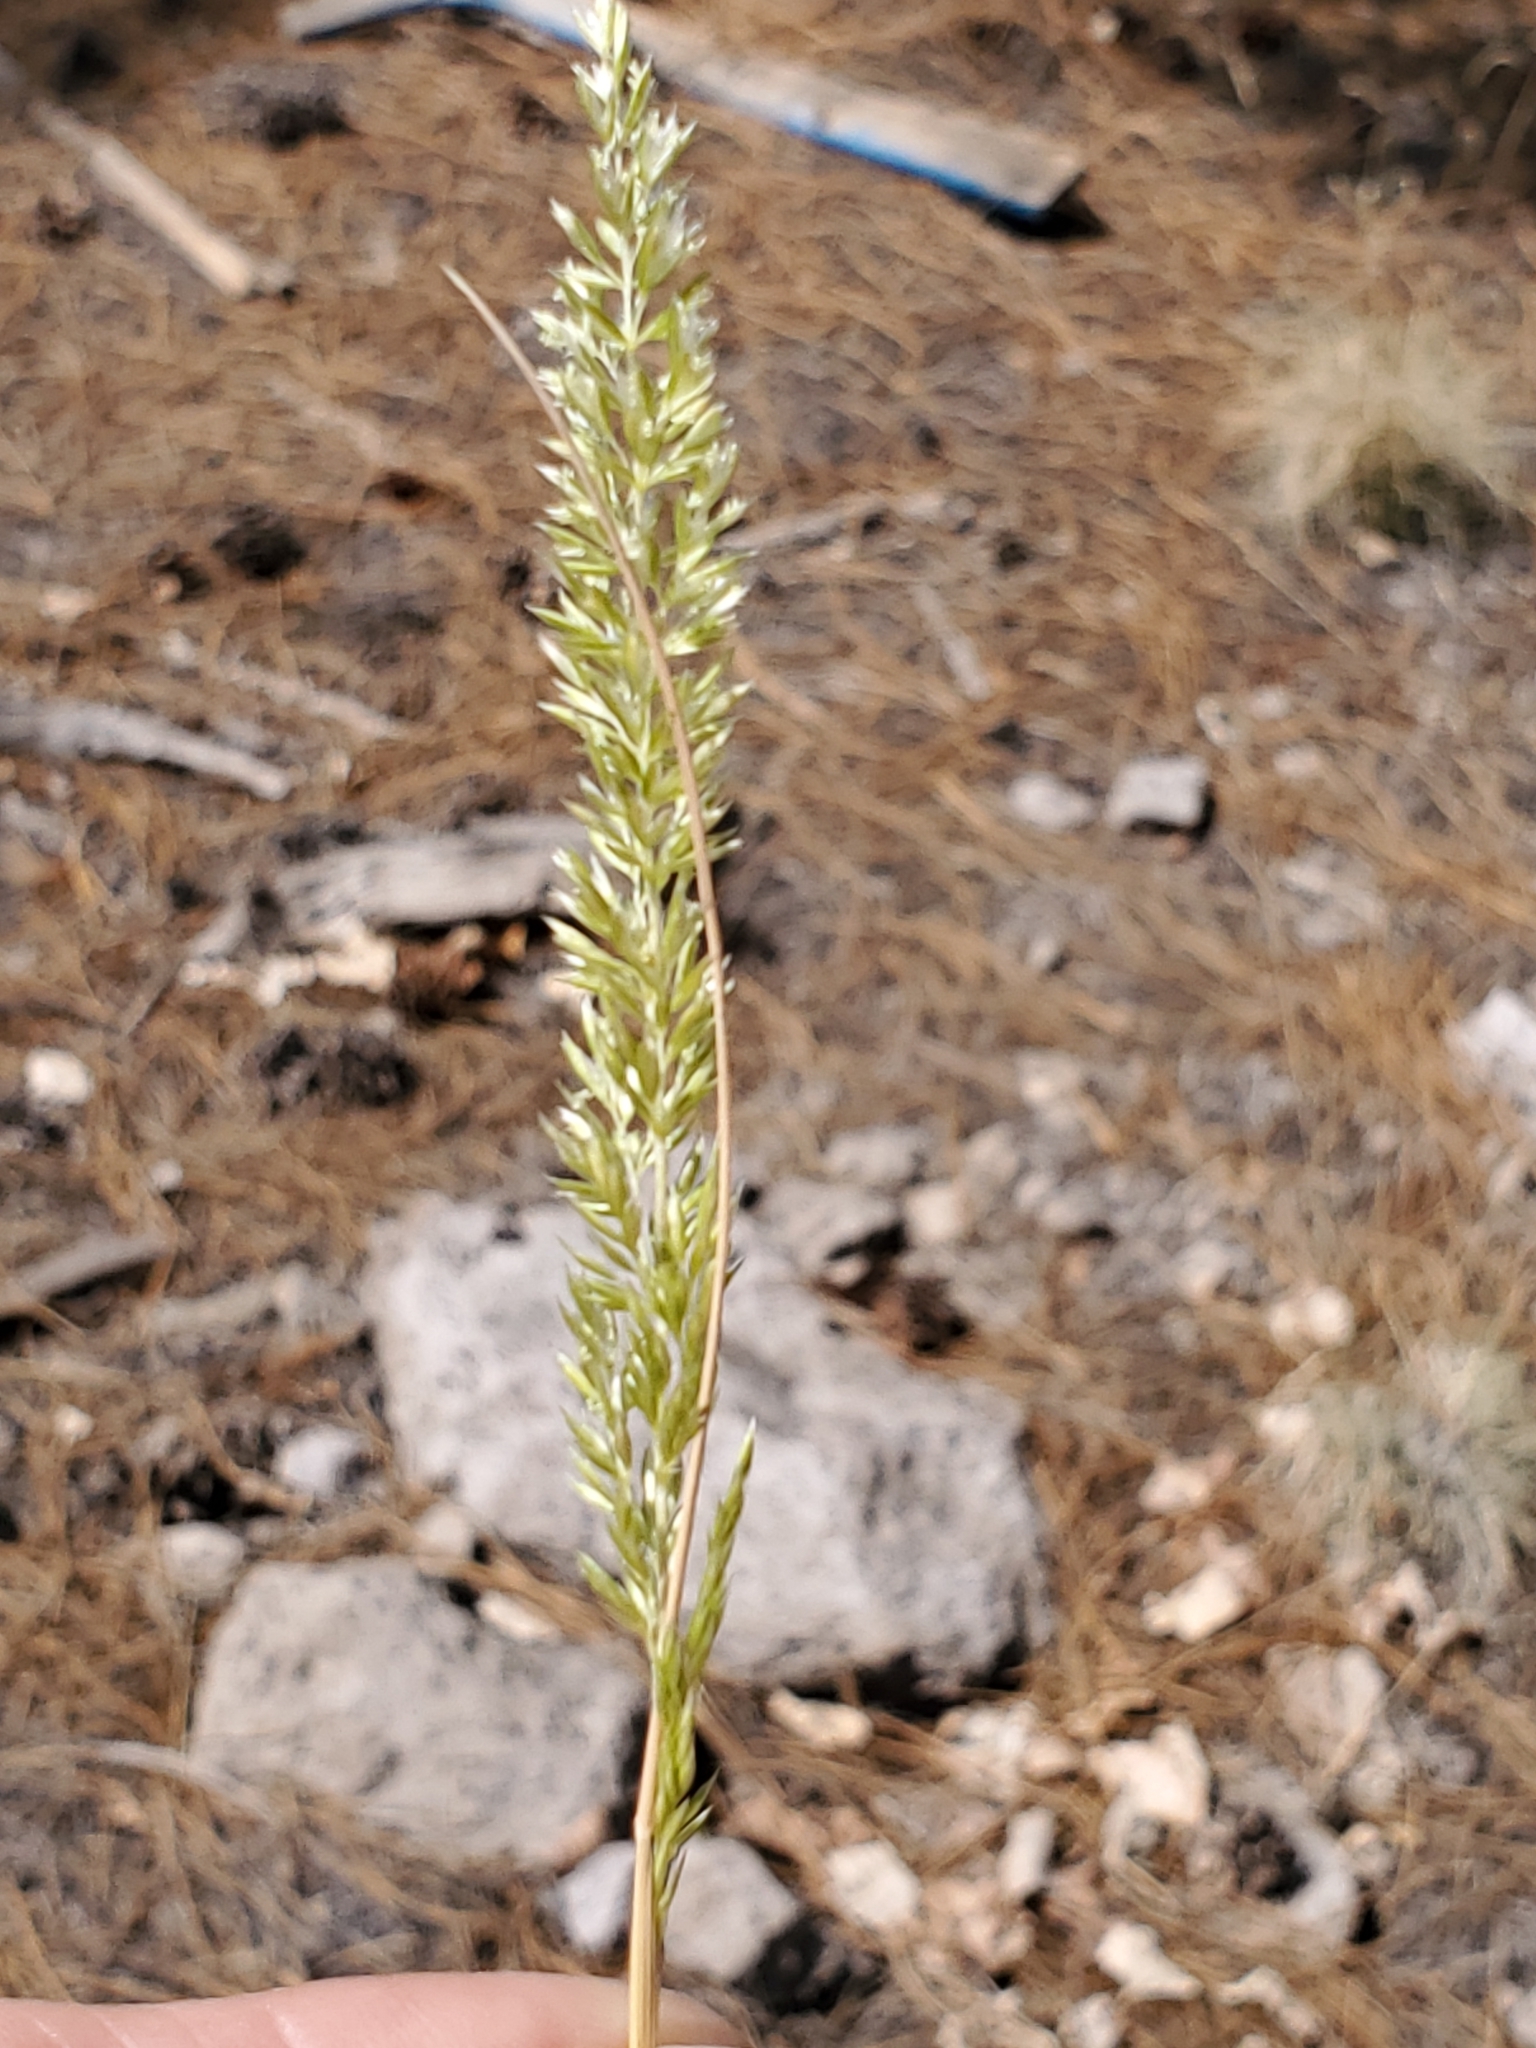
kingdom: Plantae
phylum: Tracheophyta
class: Liliopsida
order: Poales
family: Poaceae
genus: Koeleria
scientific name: Koeleria macrantha
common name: Crested hair-grass
